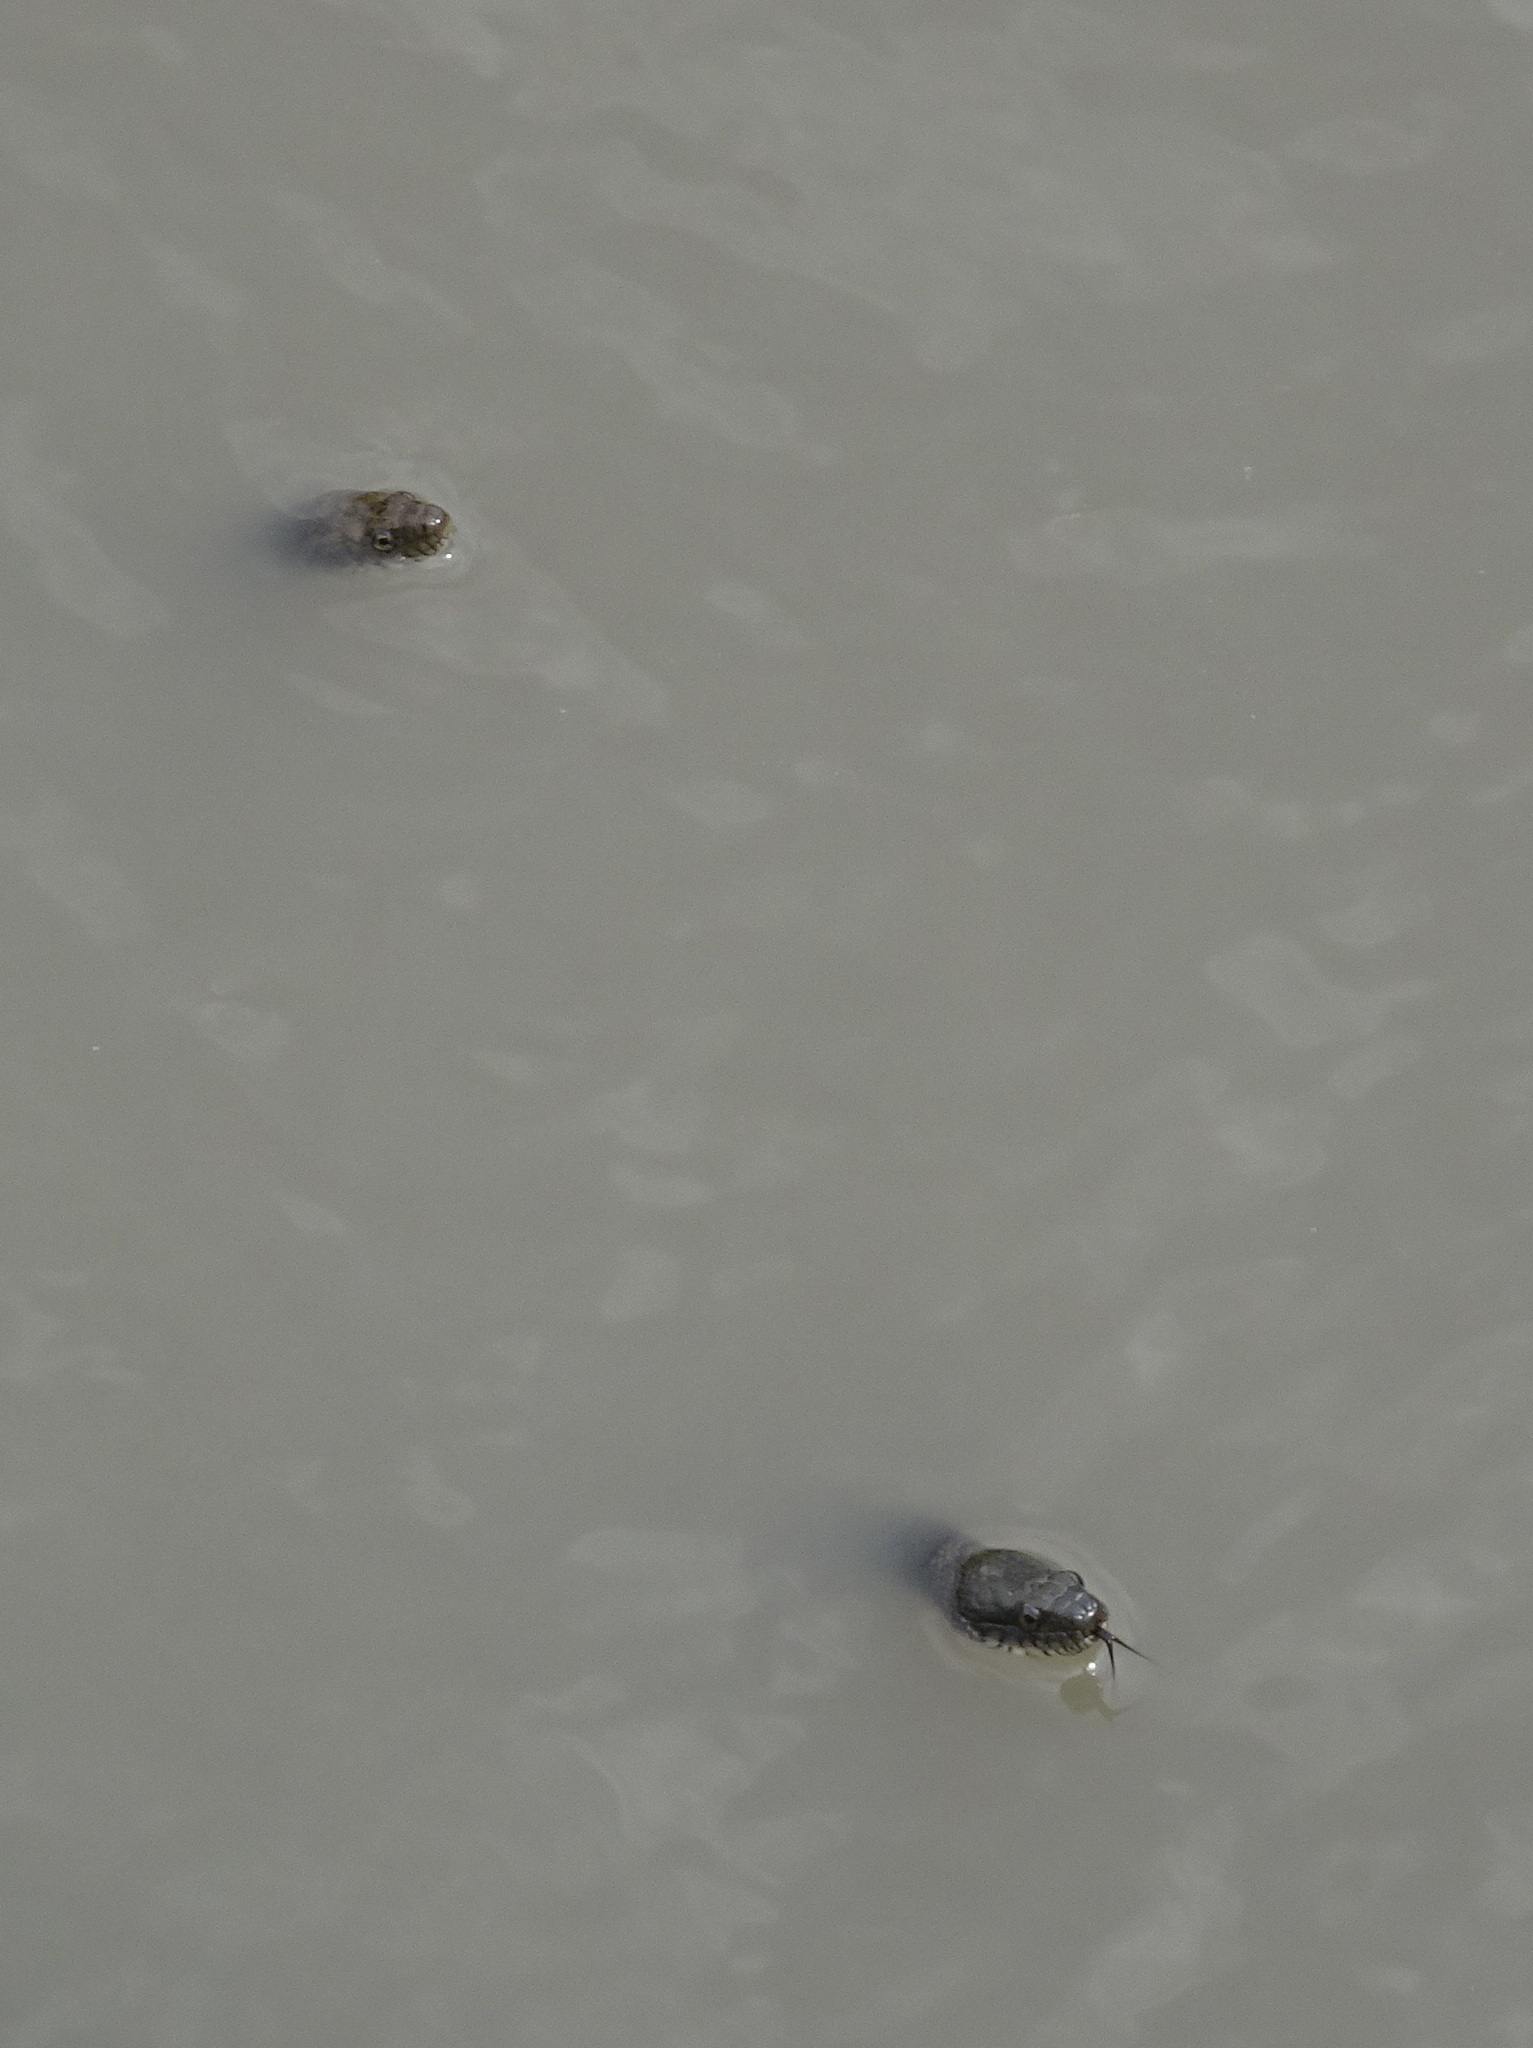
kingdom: Animalia
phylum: Chordata
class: Squamata
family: Colubridae
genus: Nerodia
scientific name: Nerodia sipedon
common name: Northern water snake
